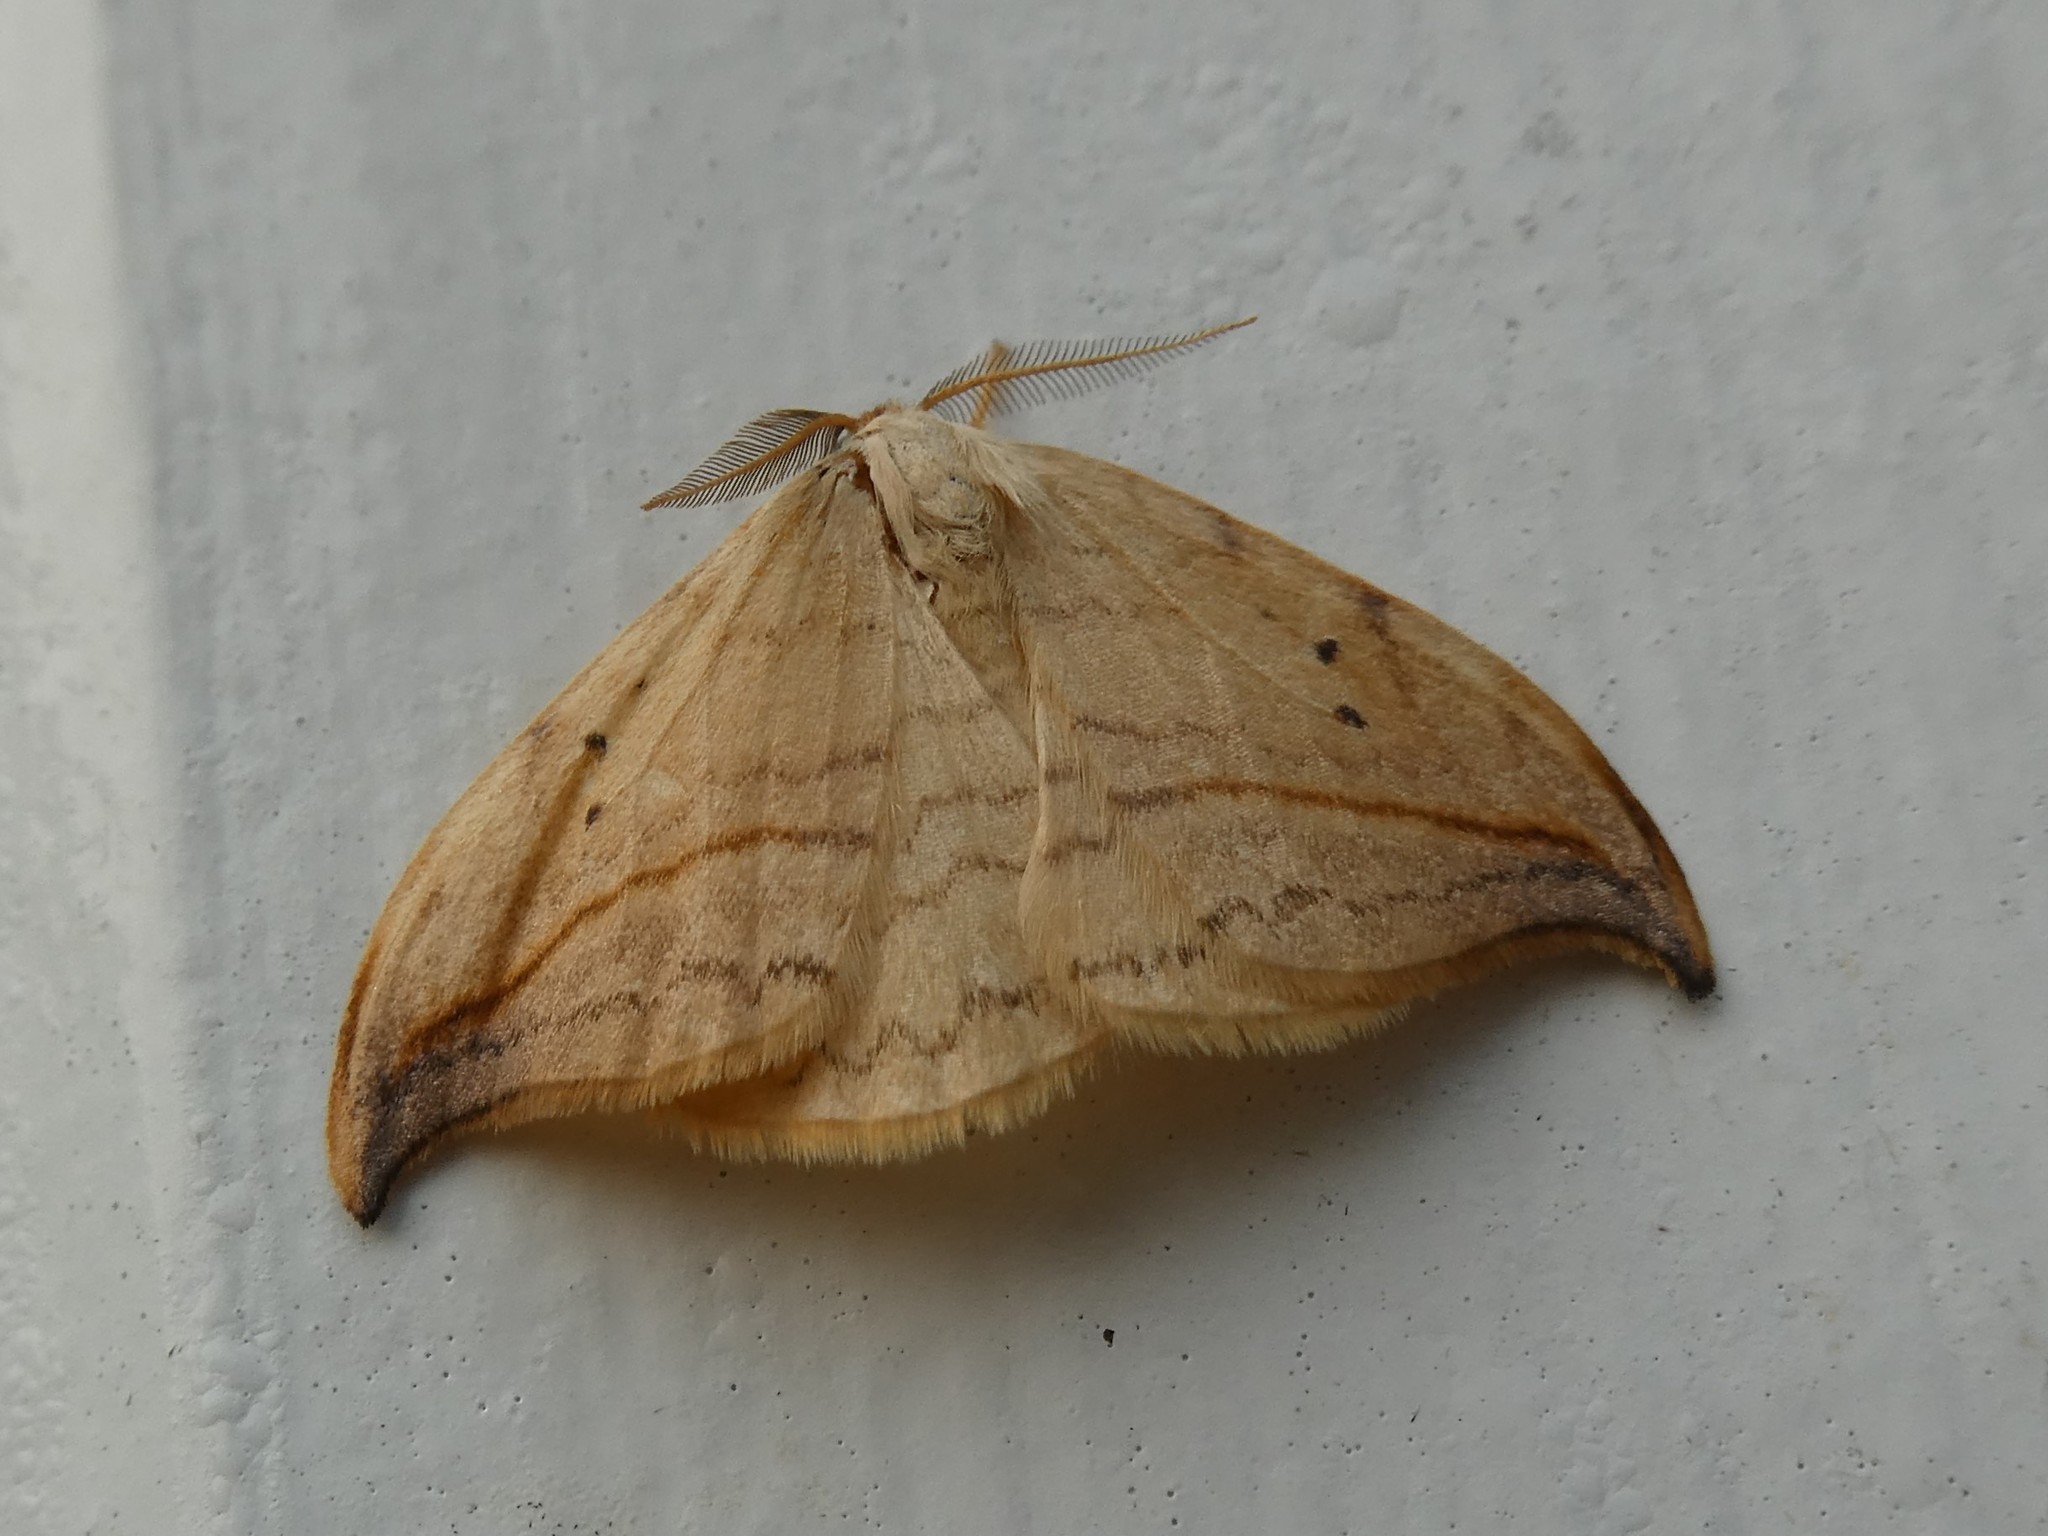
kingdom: Animalia
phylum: Arthropoda
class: Insecta
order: Lepidoptera
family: Drepanidae
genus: Drepana
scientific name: Drepana arcuata
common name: Arched hooktip moth
